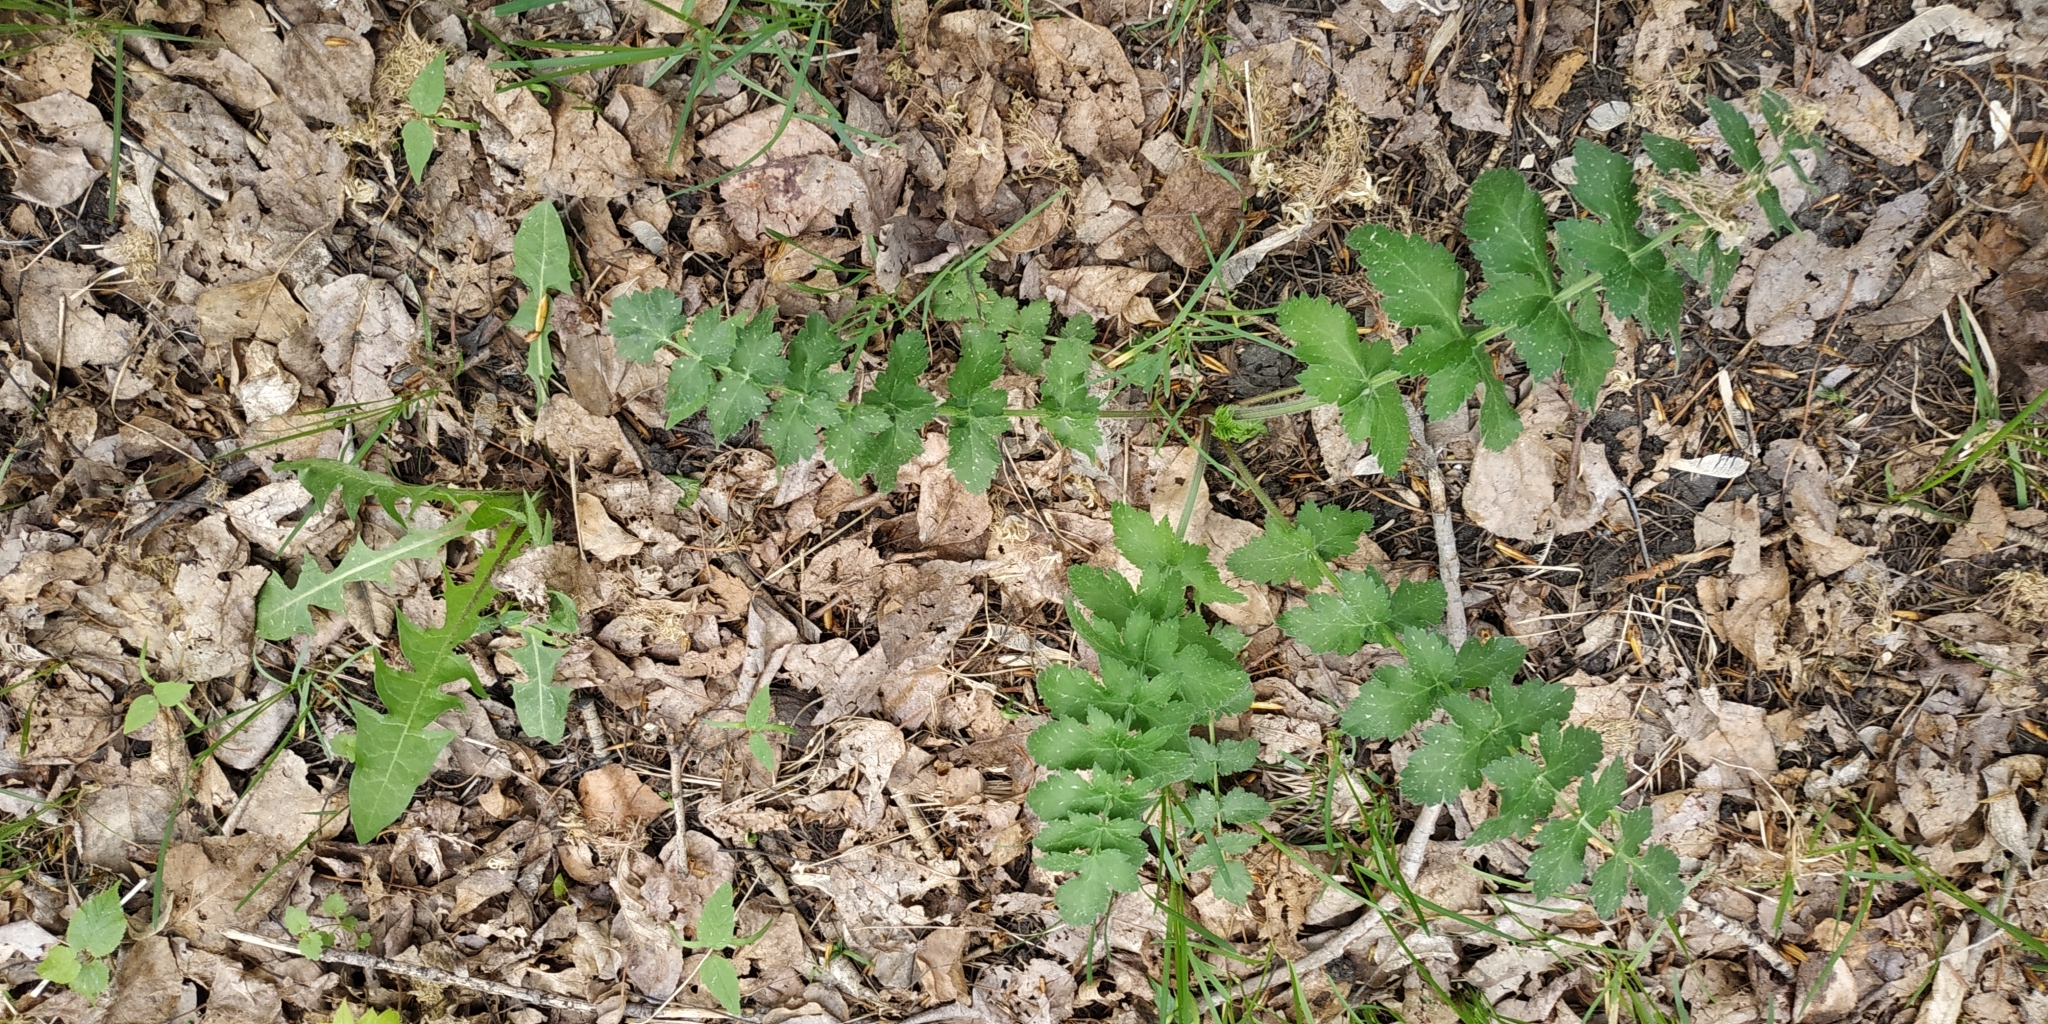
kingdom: Plantae
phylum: Tracheophyta
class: Magnoliopsida
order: Apiales
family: Apiaceae
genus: Pimpinella
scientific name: Pimpinella saxifraga
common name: Burnet-saxifrage
